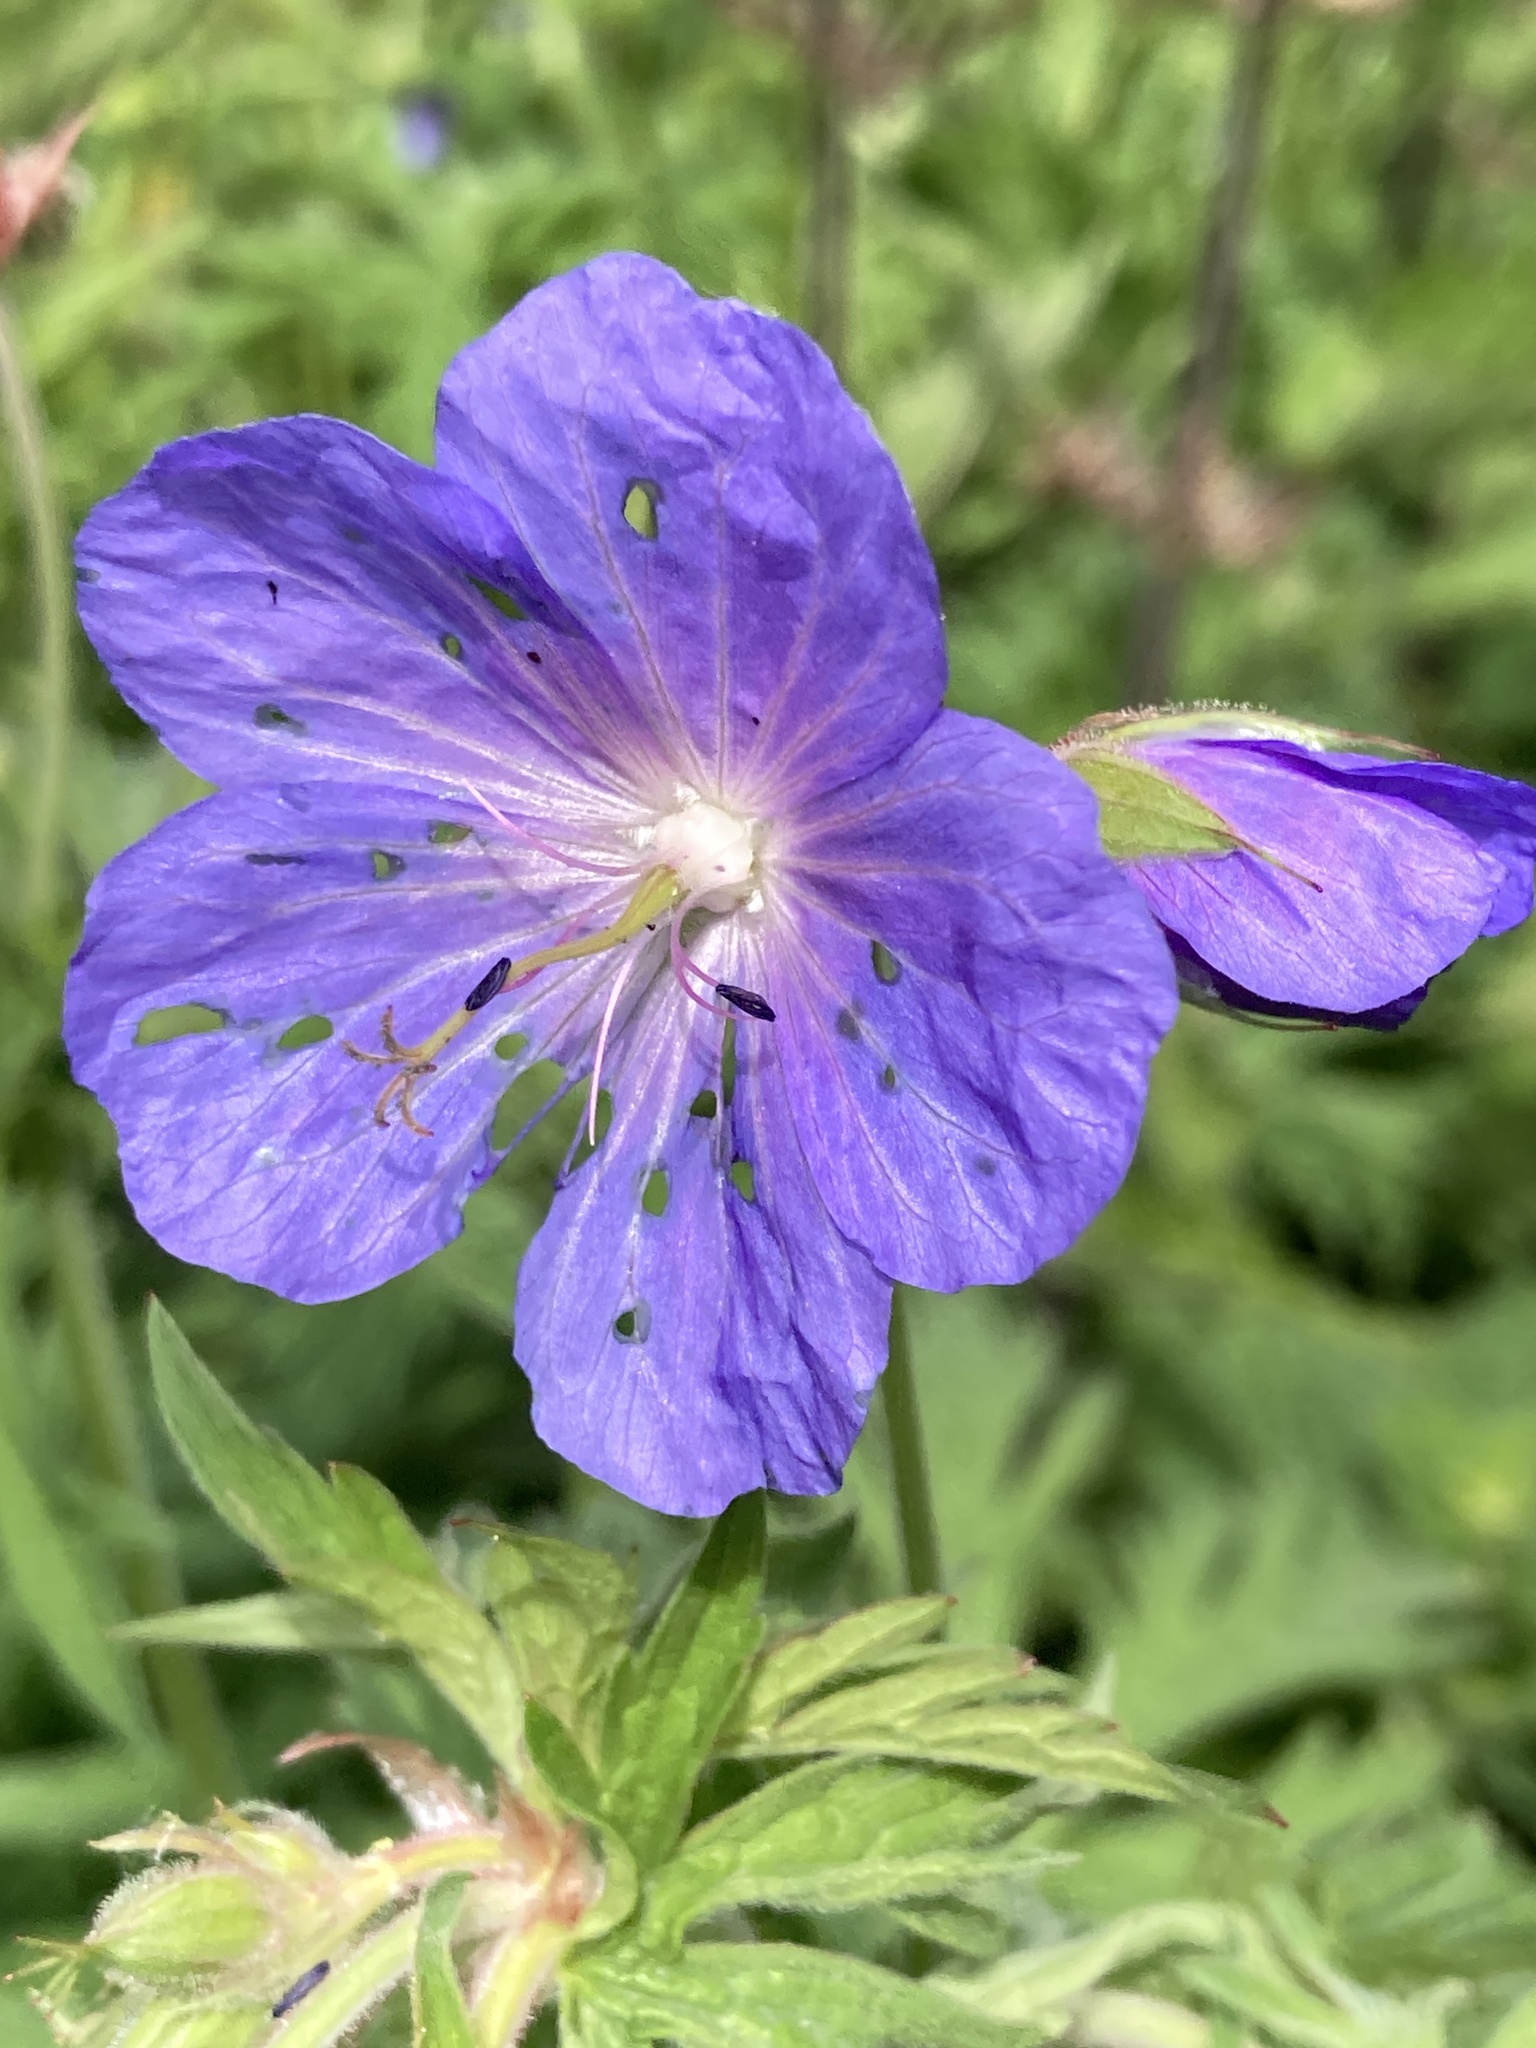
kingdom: Plantae
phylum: Tracheophyta
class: Magnoliopsida
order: Geraniales
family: Geraniaceae
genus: Geranium
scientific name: Geranium pratense
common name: Meadow crane's-bill
